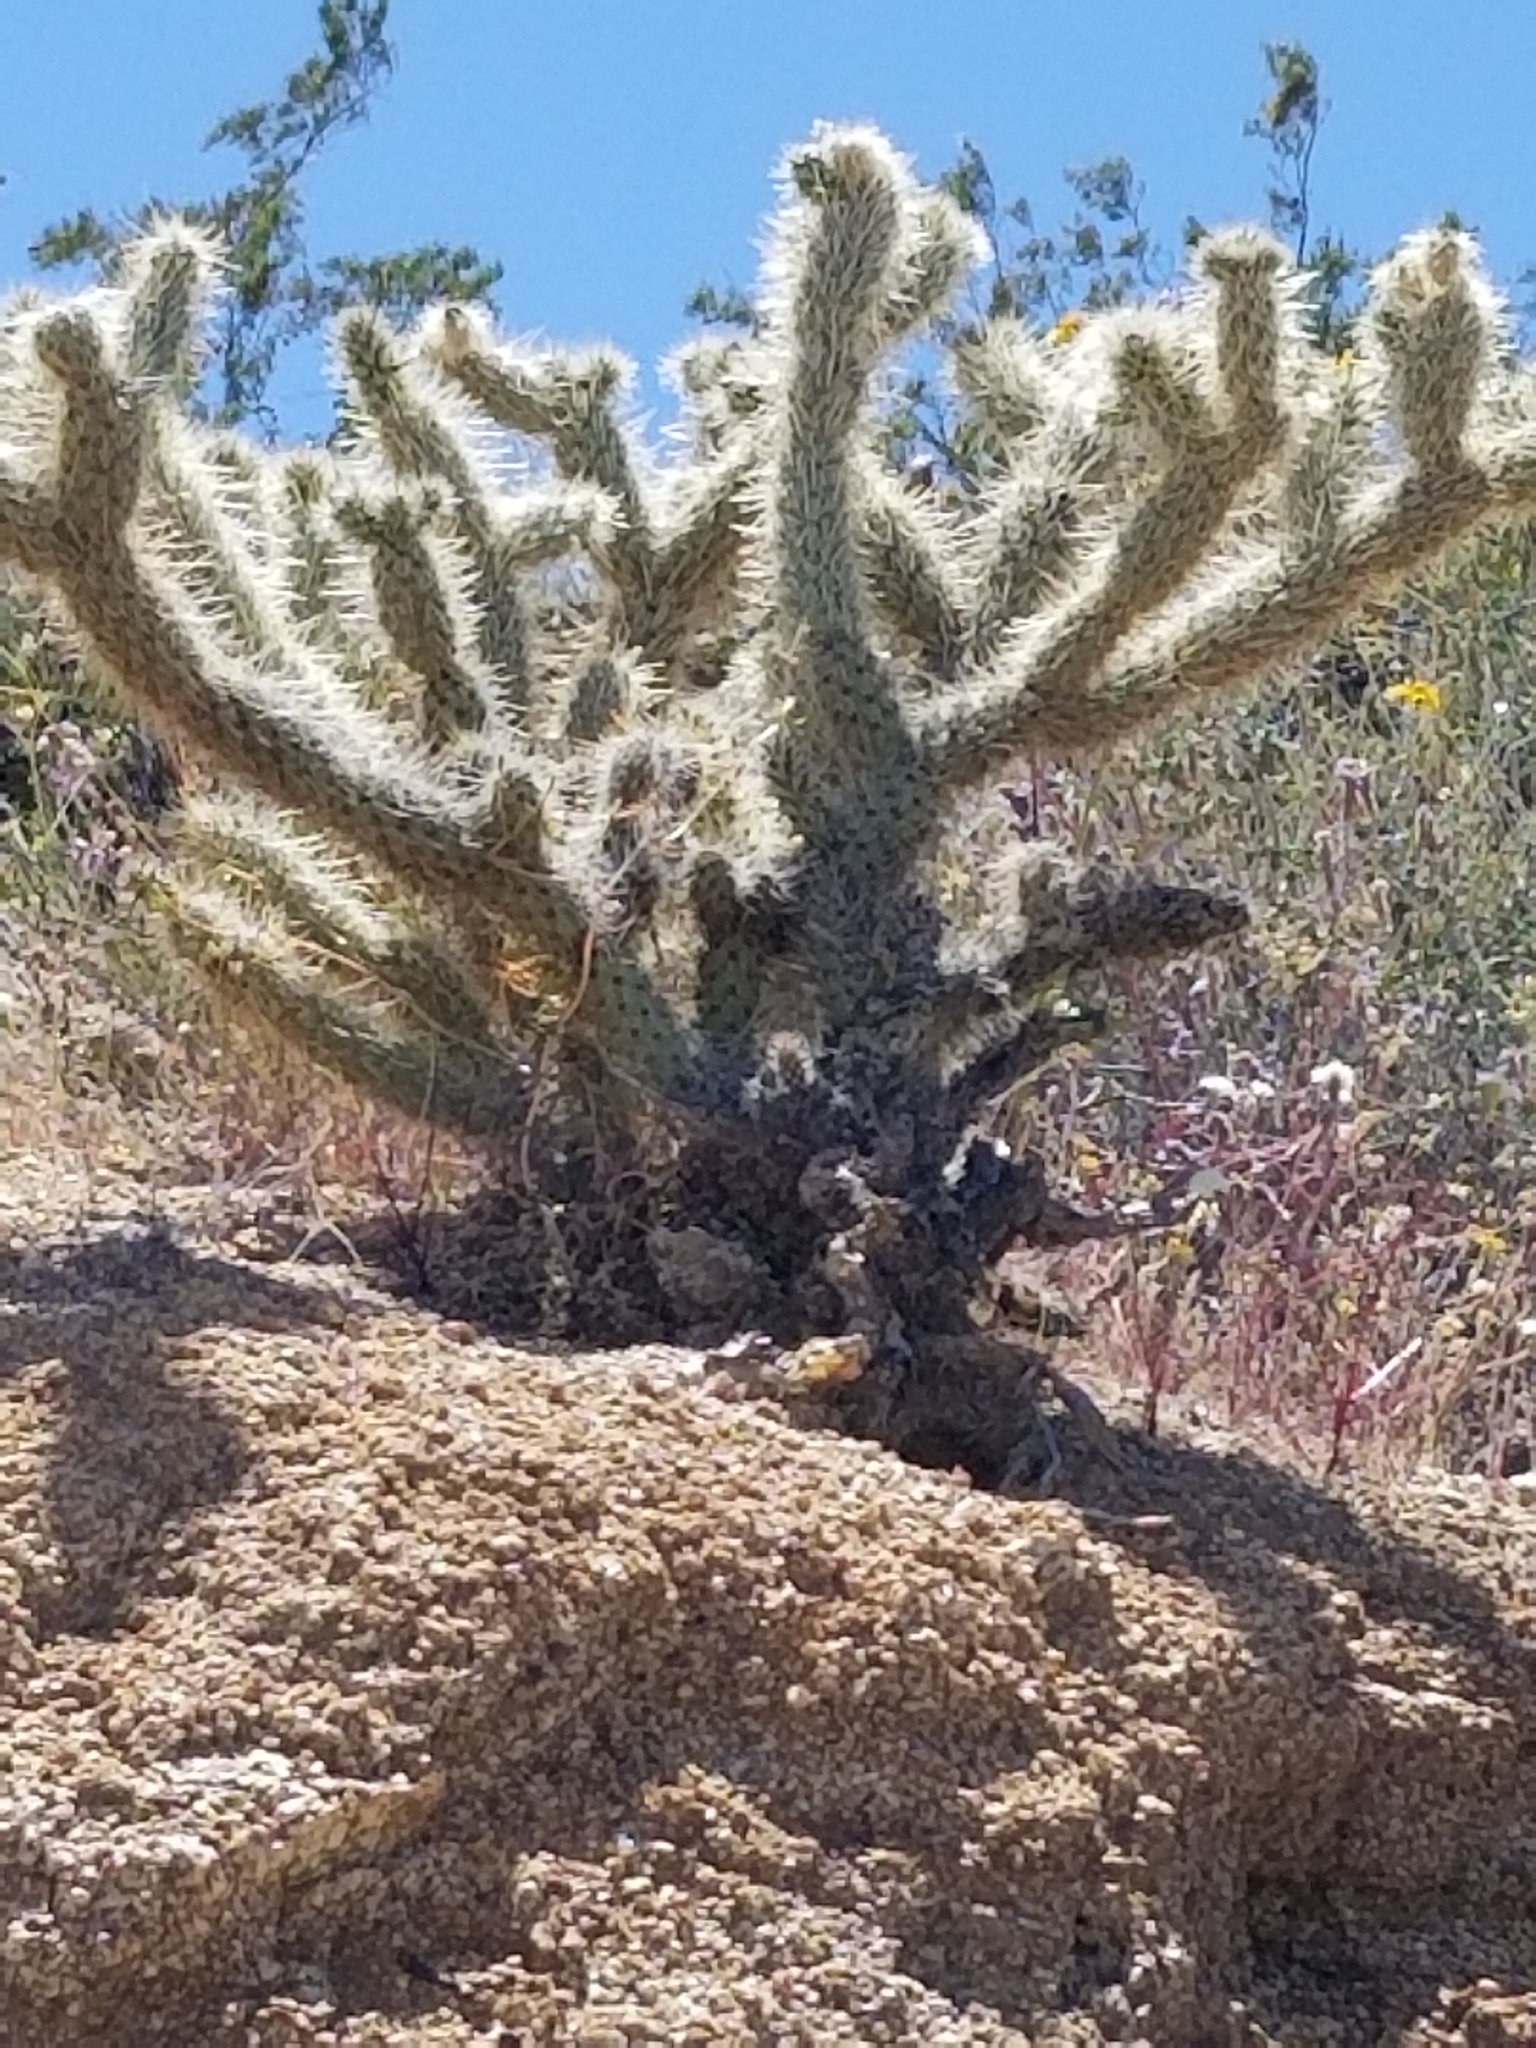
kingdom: Plantae
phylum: Tracheophyta
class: Magnoliopsida
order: Caryophyllales
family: Cactaceae
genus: Cylindropuntia
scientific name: Cylindropuntia ganderi
